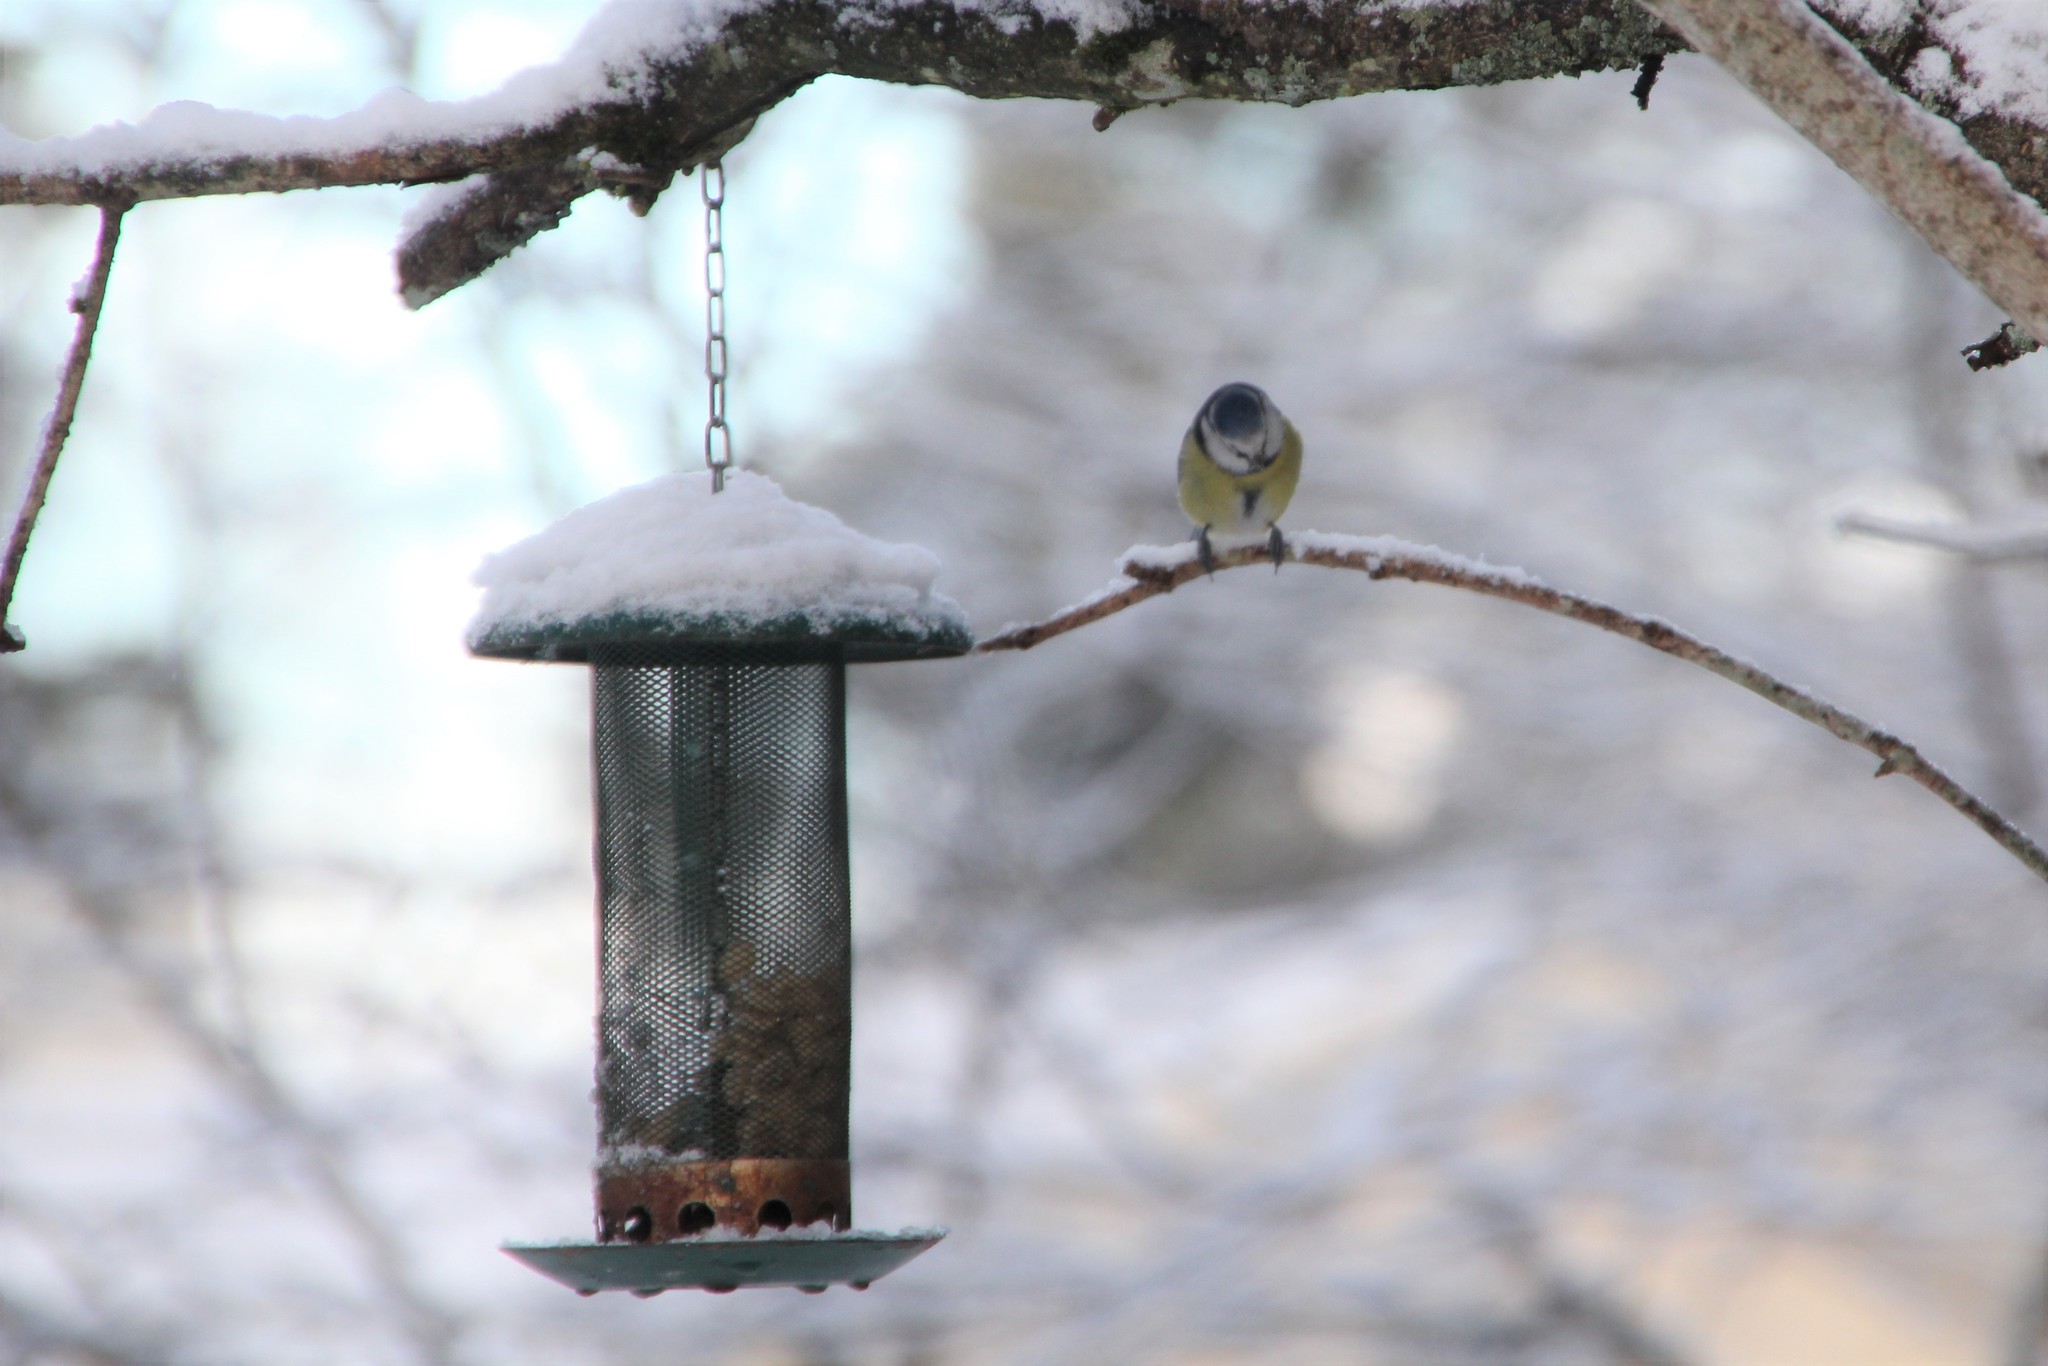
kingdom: Animalia
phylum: Chordata
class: Aves
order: Passeriformes
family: Paridae
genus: Cyanistes
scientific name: Cyanistes caeruleus
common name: Eurasian blue tit
